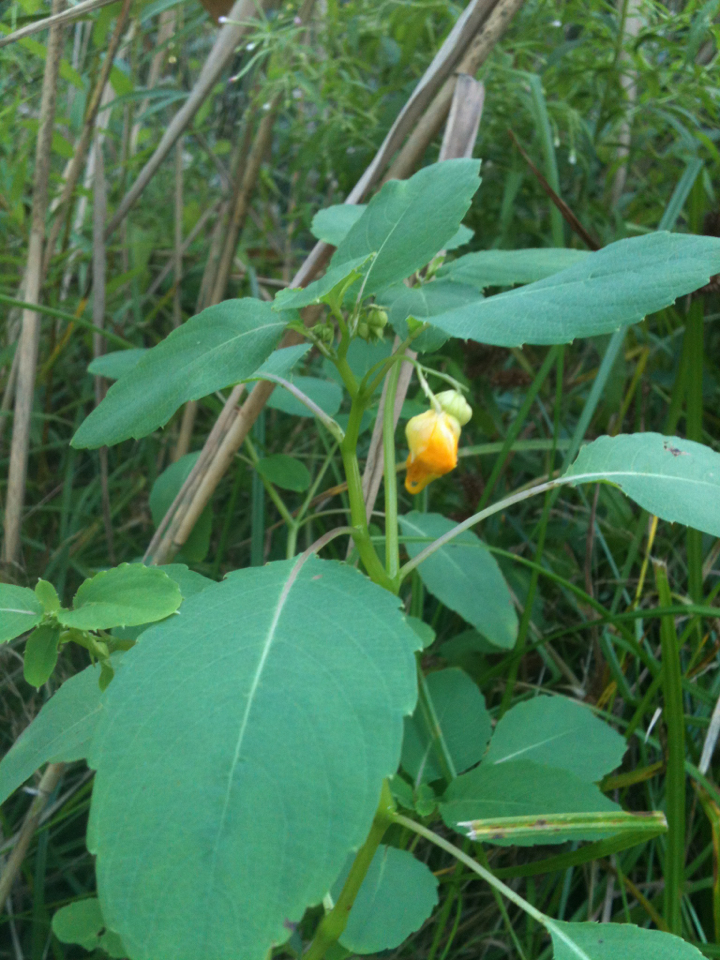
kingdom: Plantae
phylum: Tracheophyta
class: Magnoliopsida
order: Ericales
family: Balsaminaceae
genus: Impatiens
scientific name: Impatiens capensis
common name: Orange balsam
